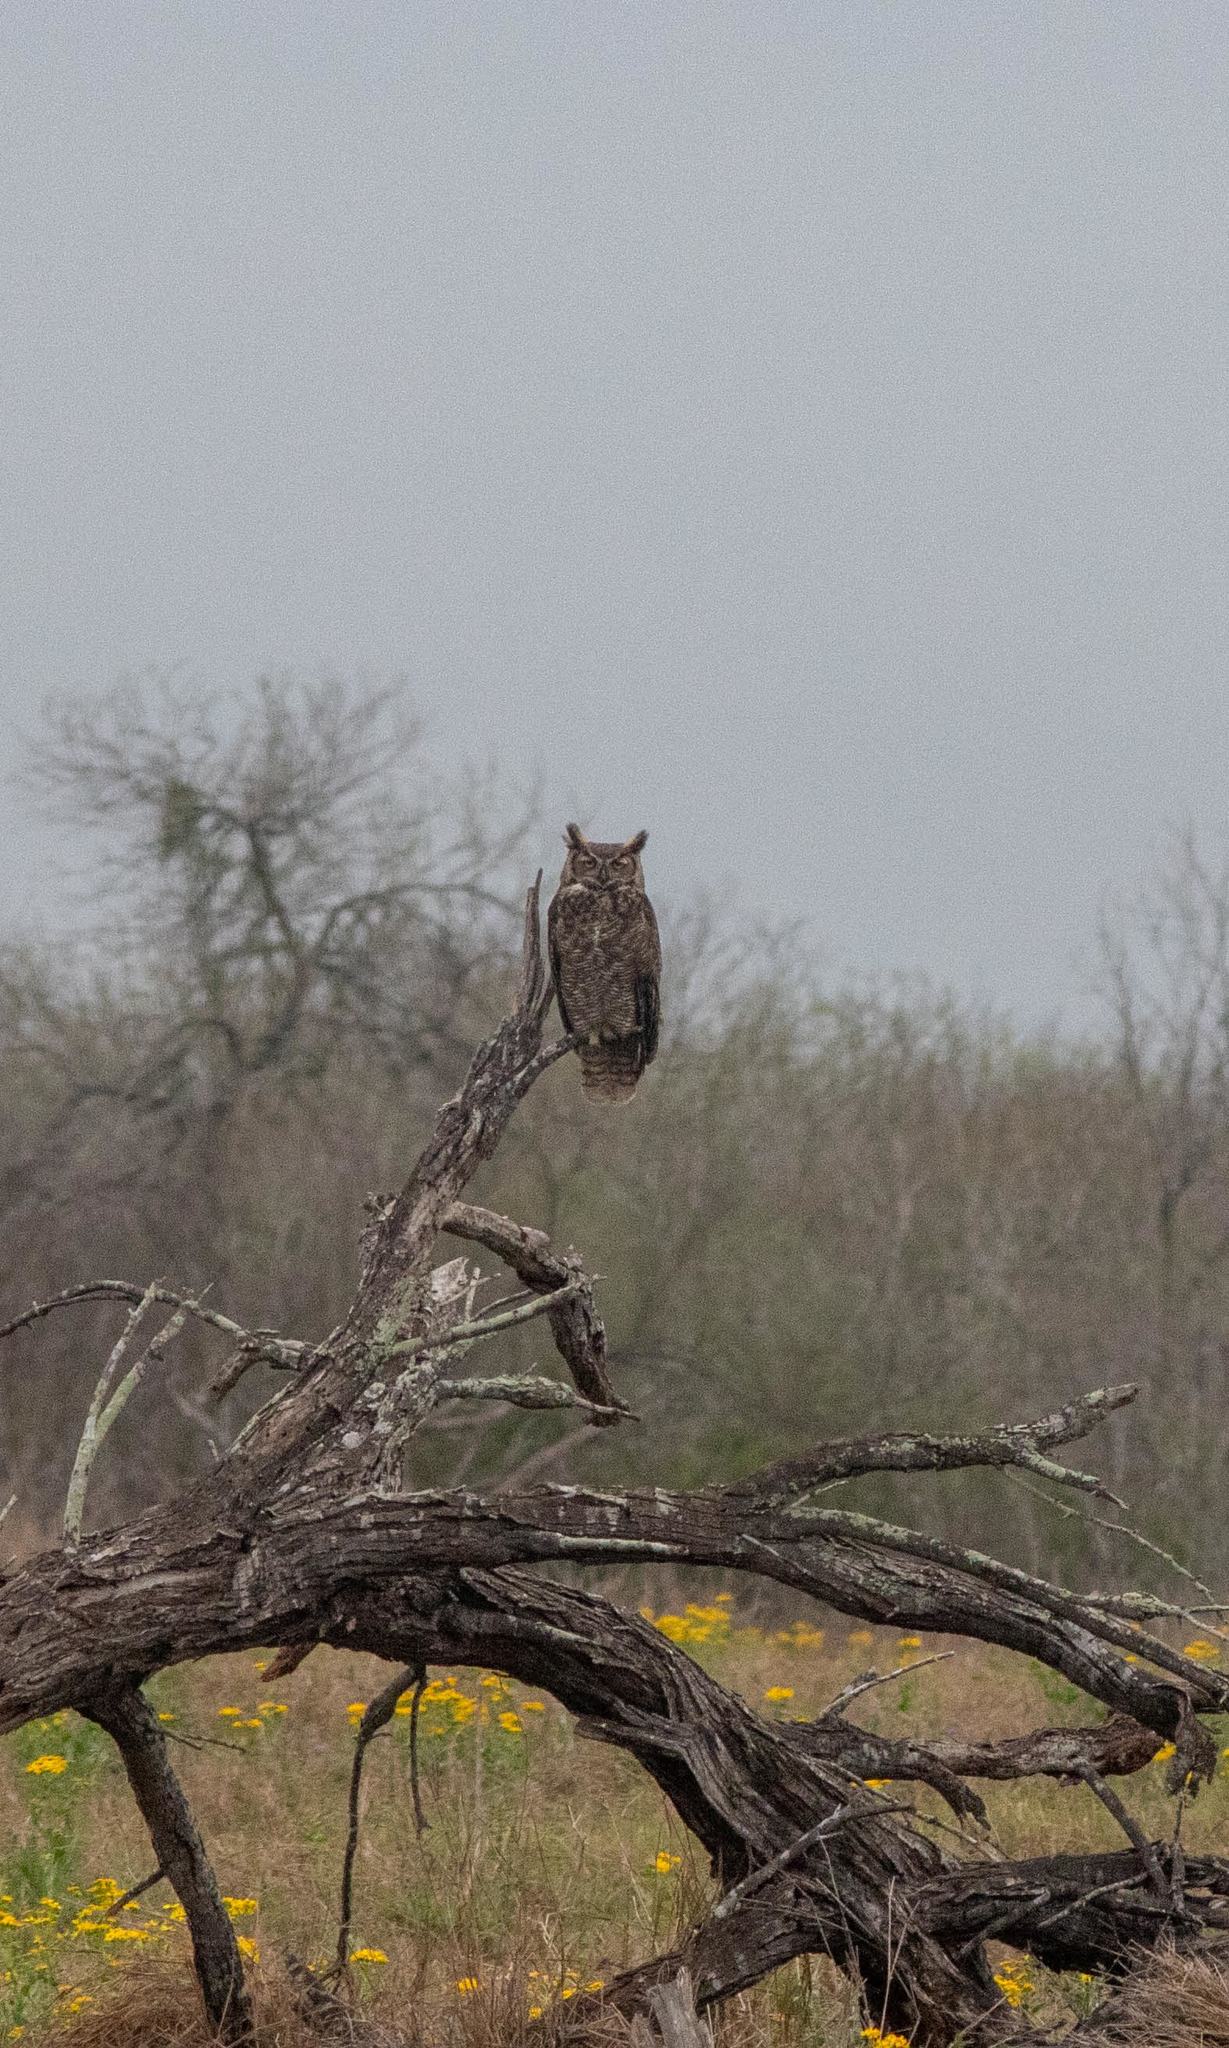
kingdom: Animalia
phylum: Chordata
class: Aves
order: Strigiformes
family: Strigidae
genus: Bubo
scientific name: Bubo virginianus
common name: Great horned owl
